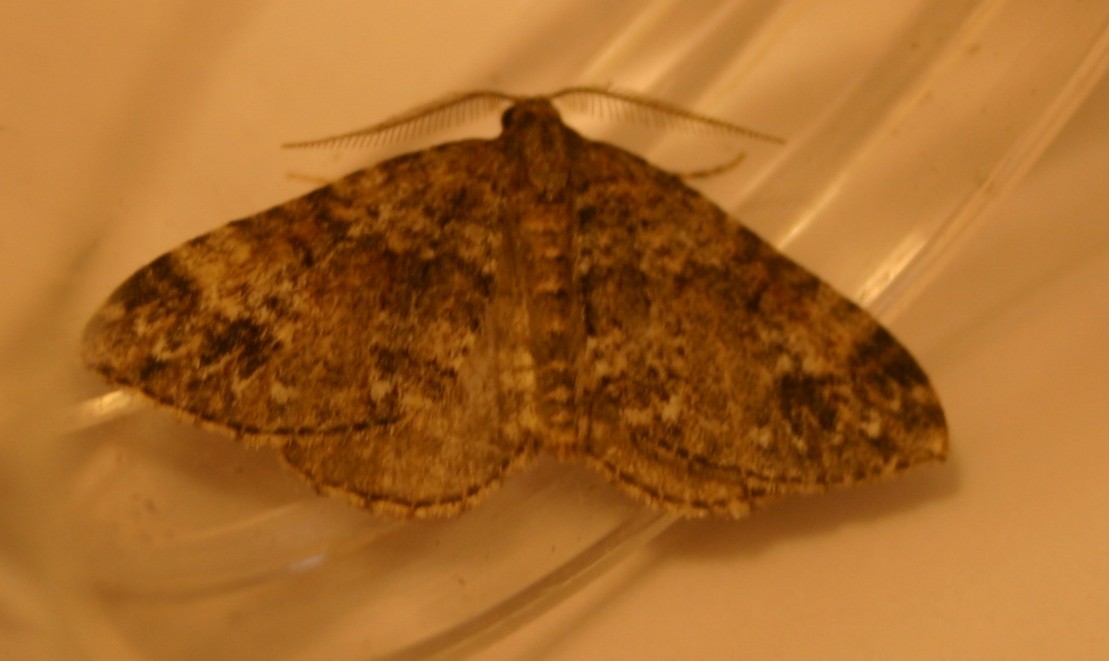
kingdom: Animalia
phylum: Arthropoda
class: Insecta
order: Lepidoptera
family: Geometridae
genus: Perizoma
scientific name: Perizoma didymata
